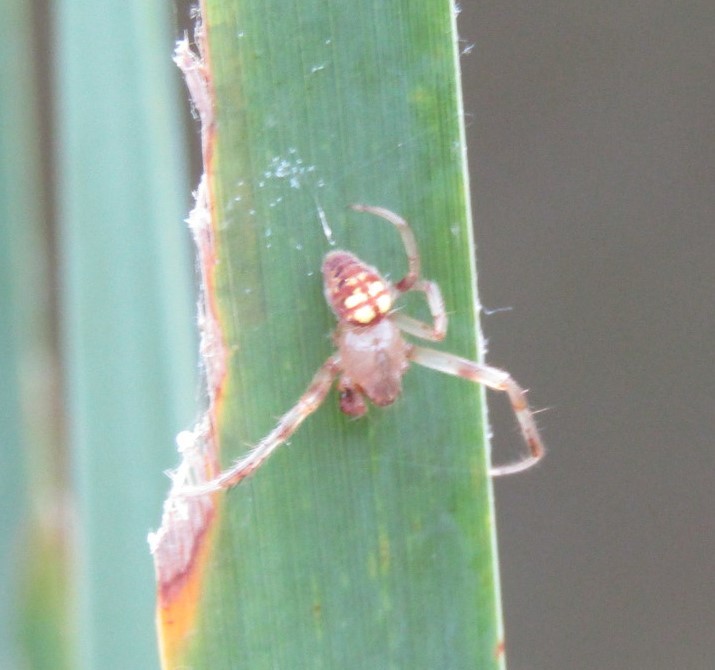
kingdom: Animalia
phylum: Arthropoda
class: Arachnida
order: Araneae
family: Araneidae
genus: Araneus
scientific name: Araneus thaddeus
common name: Lattice orbweaver
